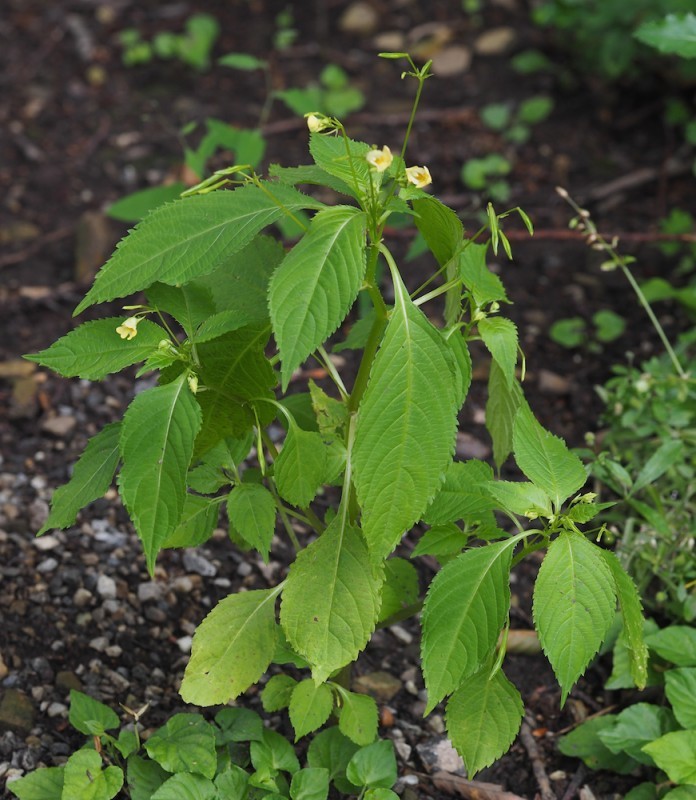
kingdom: Plantae
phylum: Tracheophyta
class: Magnoliopsida
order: Ericales
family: Balsaminaceae
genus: Impatiens
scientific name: Impatiens parviflora
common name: Small balsam
